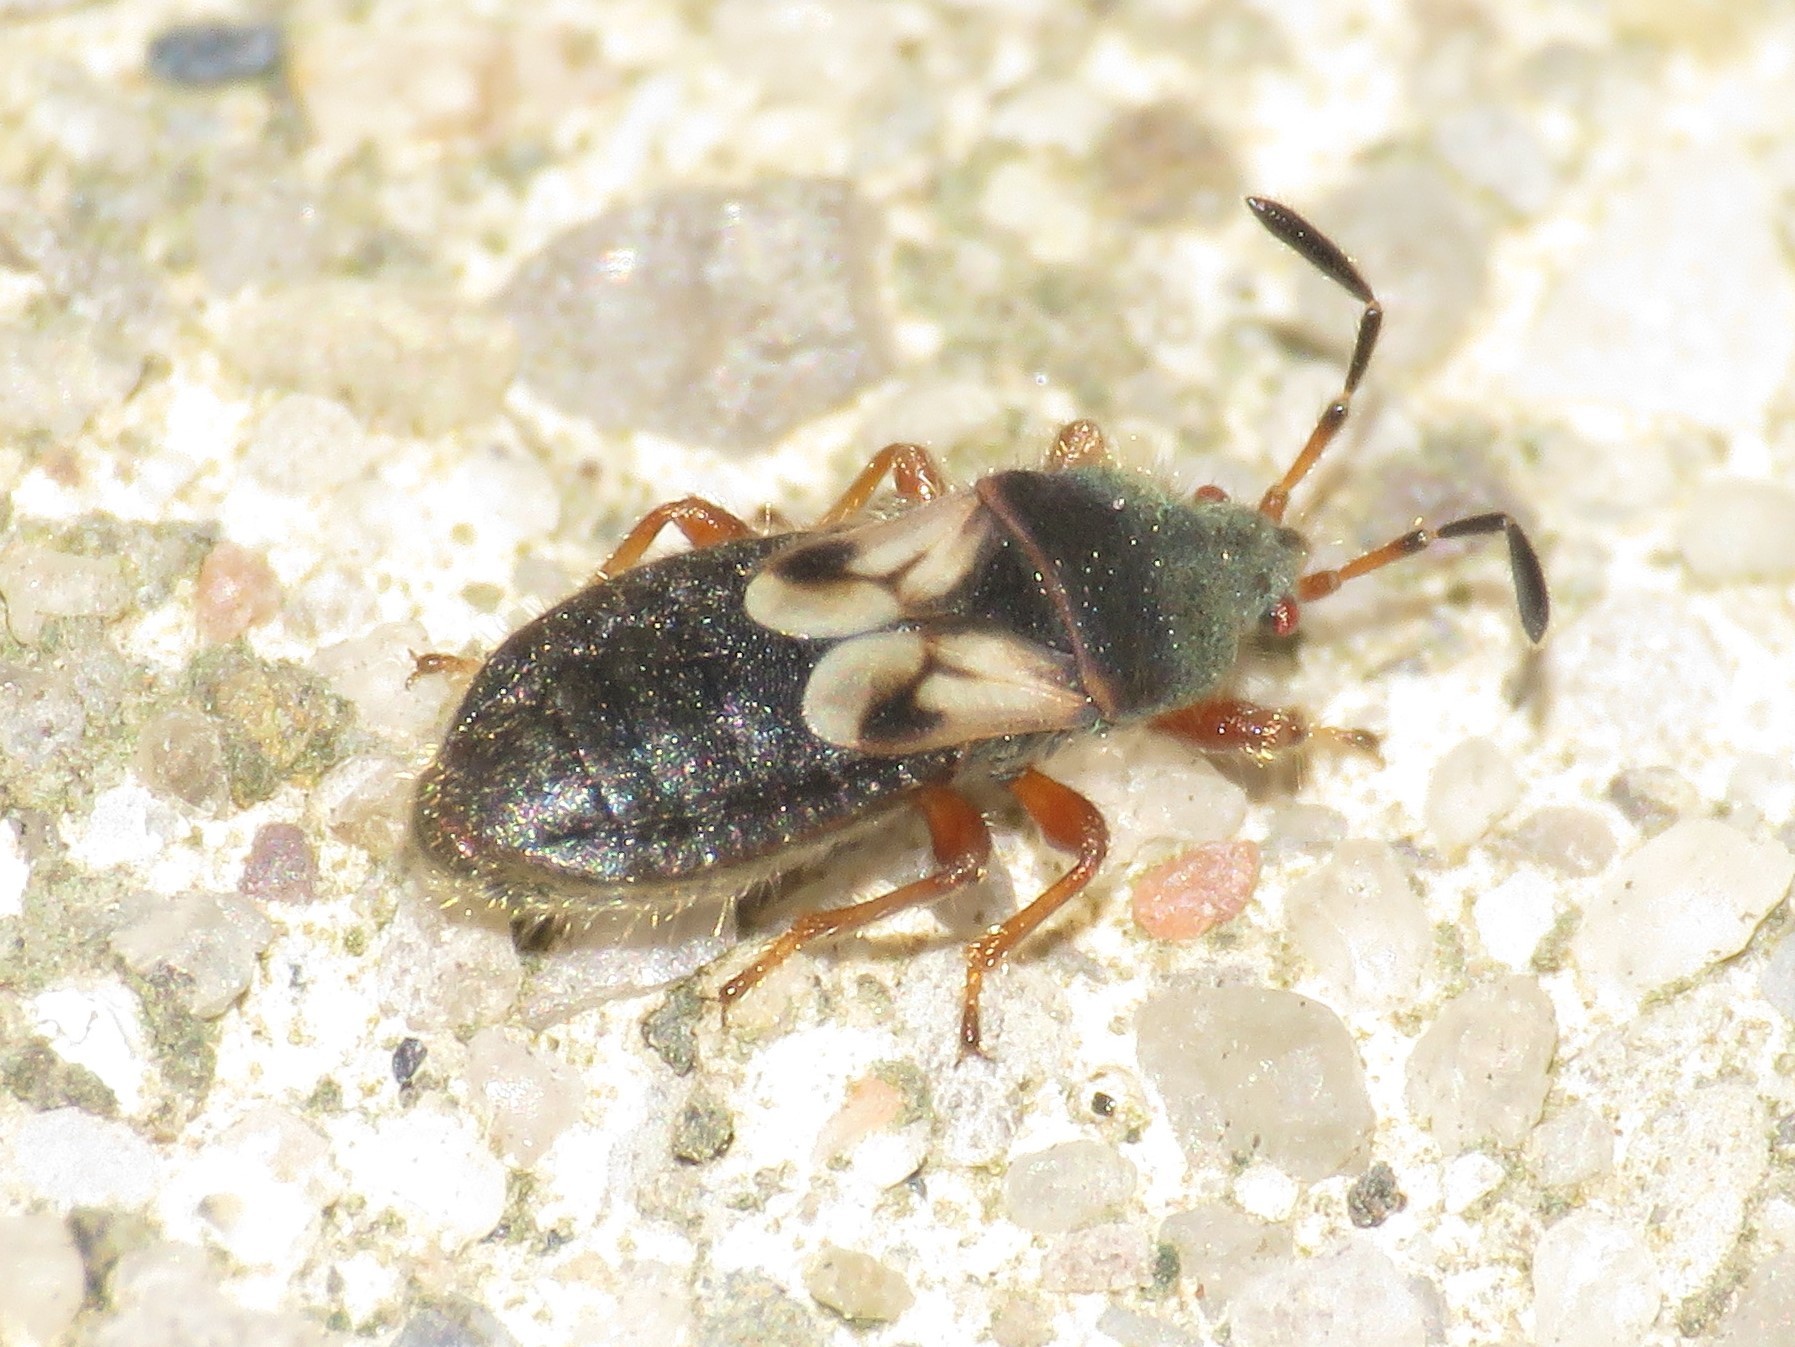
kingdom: Animalia
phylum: Arthropoda
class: Insecta
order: Hemiptera
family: Blissidae
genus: Blissus
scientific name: Blissus leucopterus
